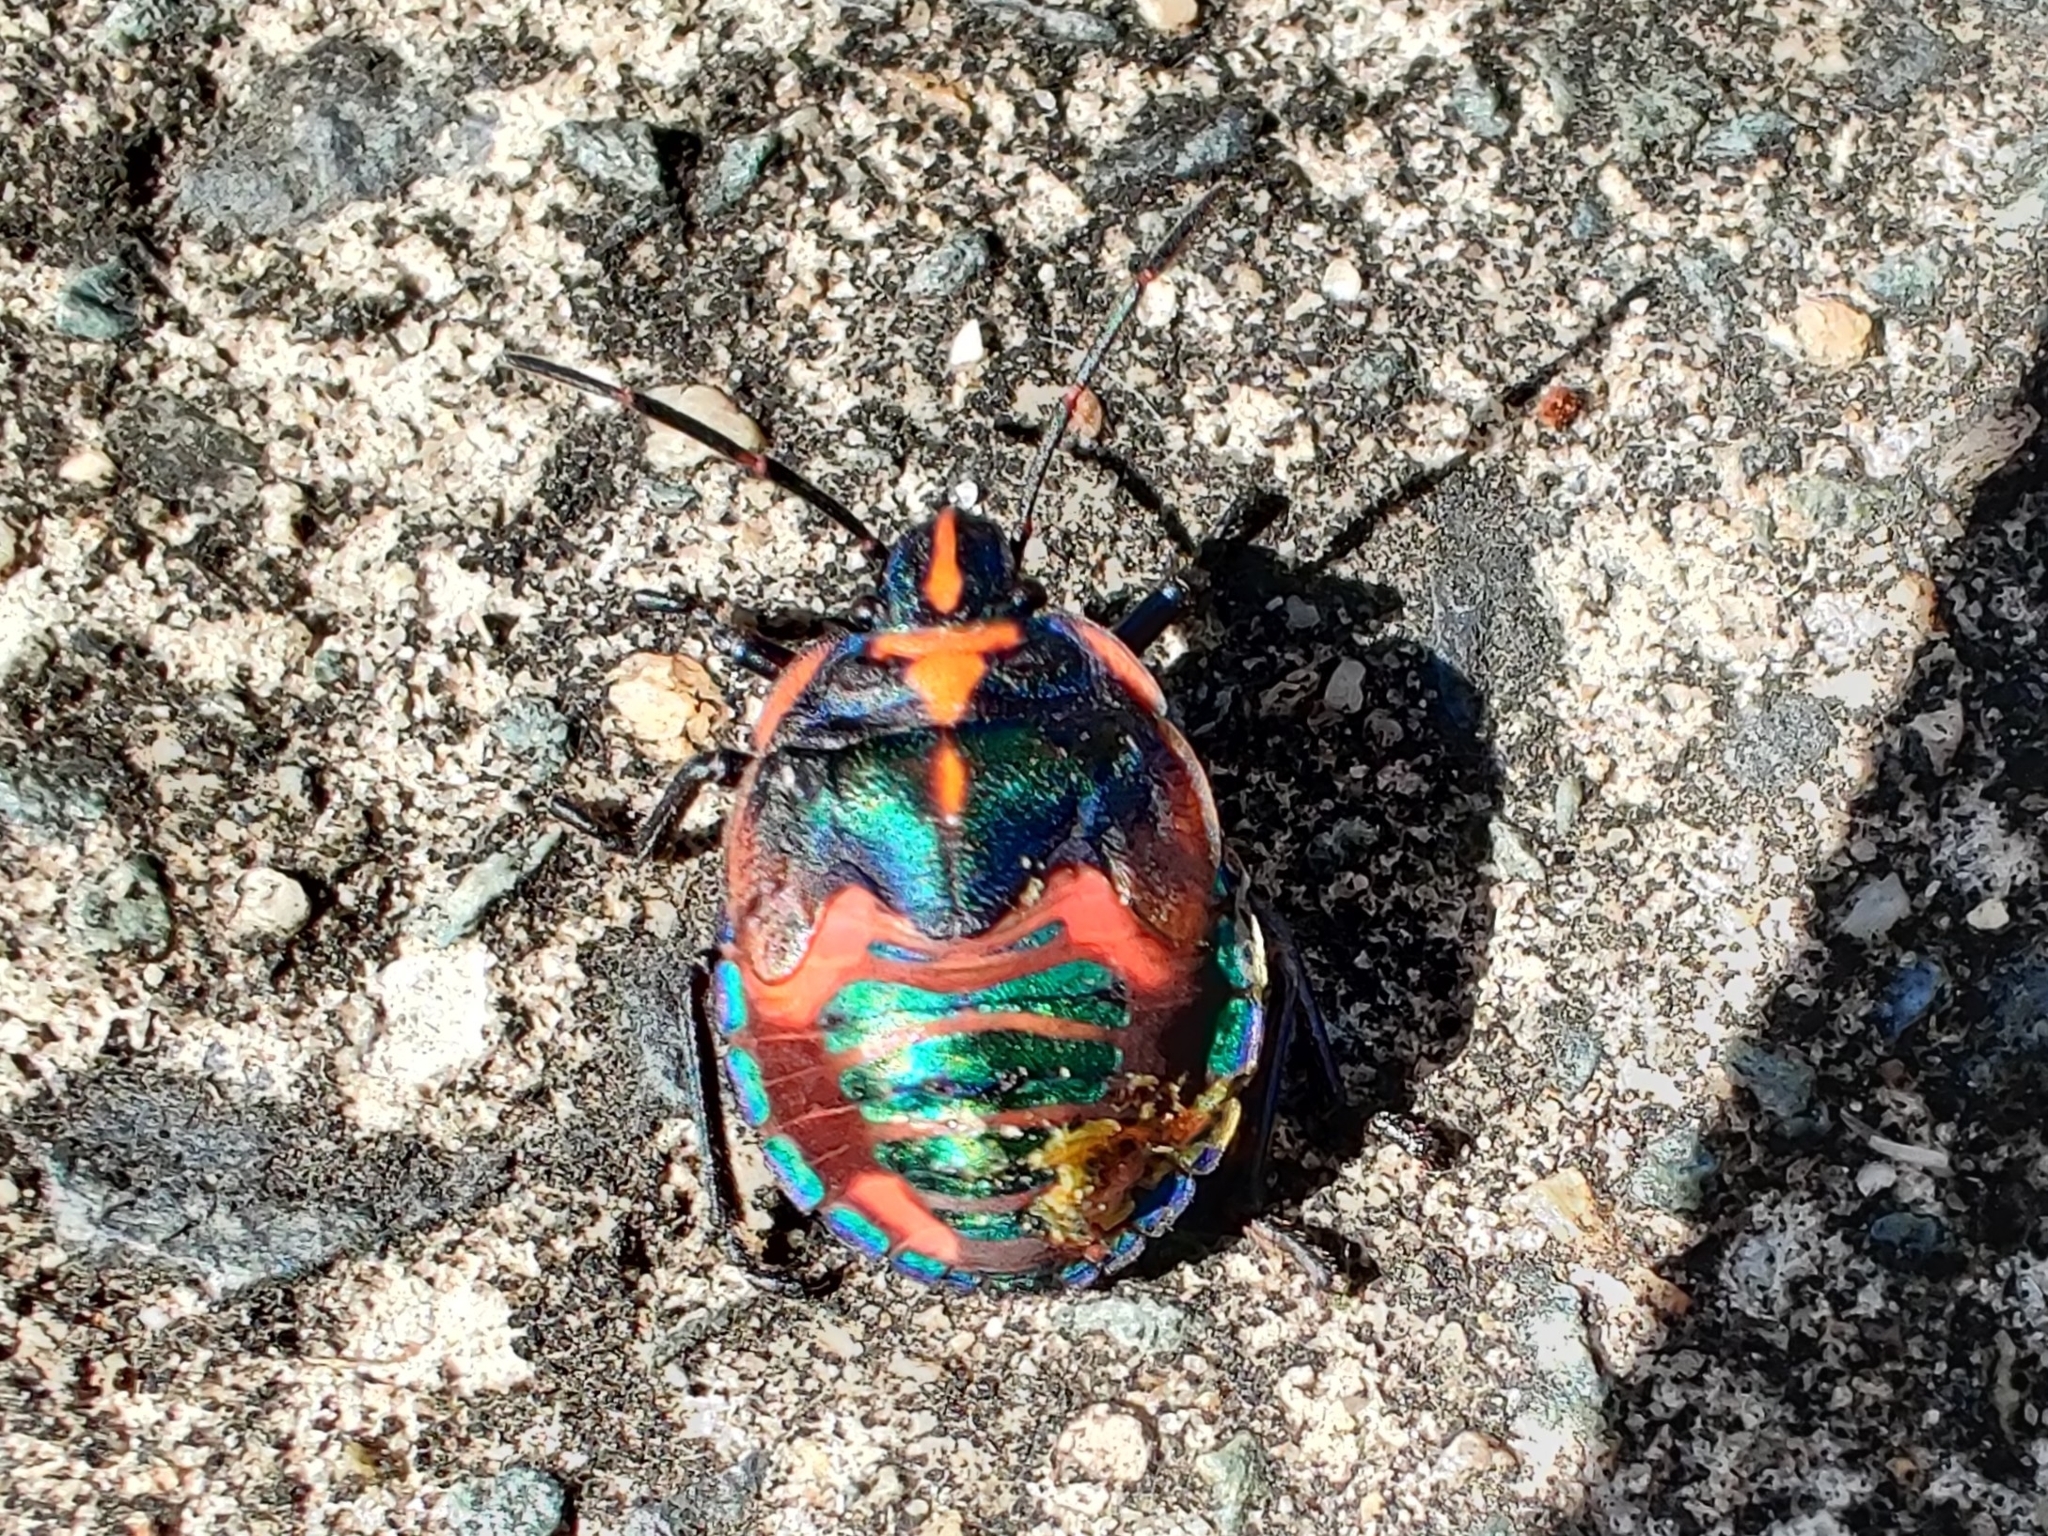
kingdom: Animalia
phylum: Arthropoda
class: Insecta
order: Hemiptera
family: Scutelleridae
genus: Tectocoris
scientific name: Tectocoris diophthalmus
